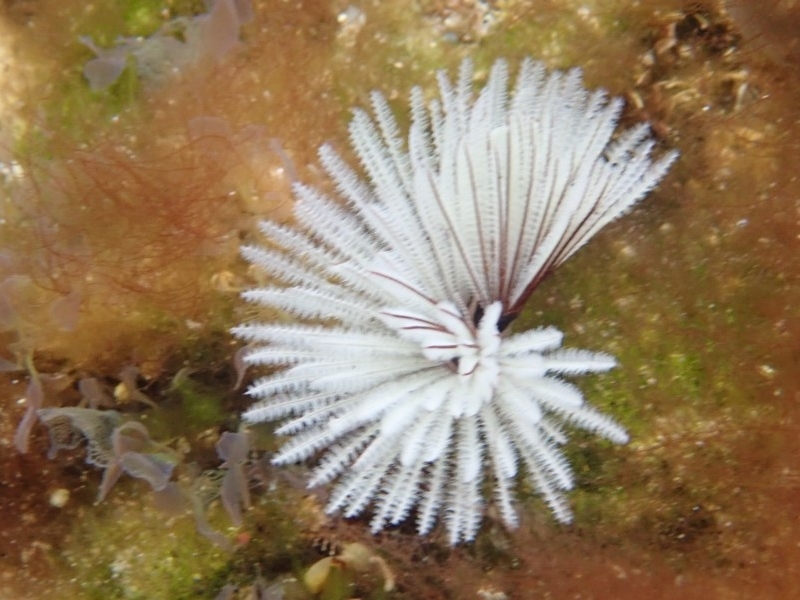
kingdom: Animalia
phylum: Annelida
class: Polychaeta
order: Sabellida
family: Sabellidae
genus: Sabellastarte
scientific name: Sabellastarte australiensis
